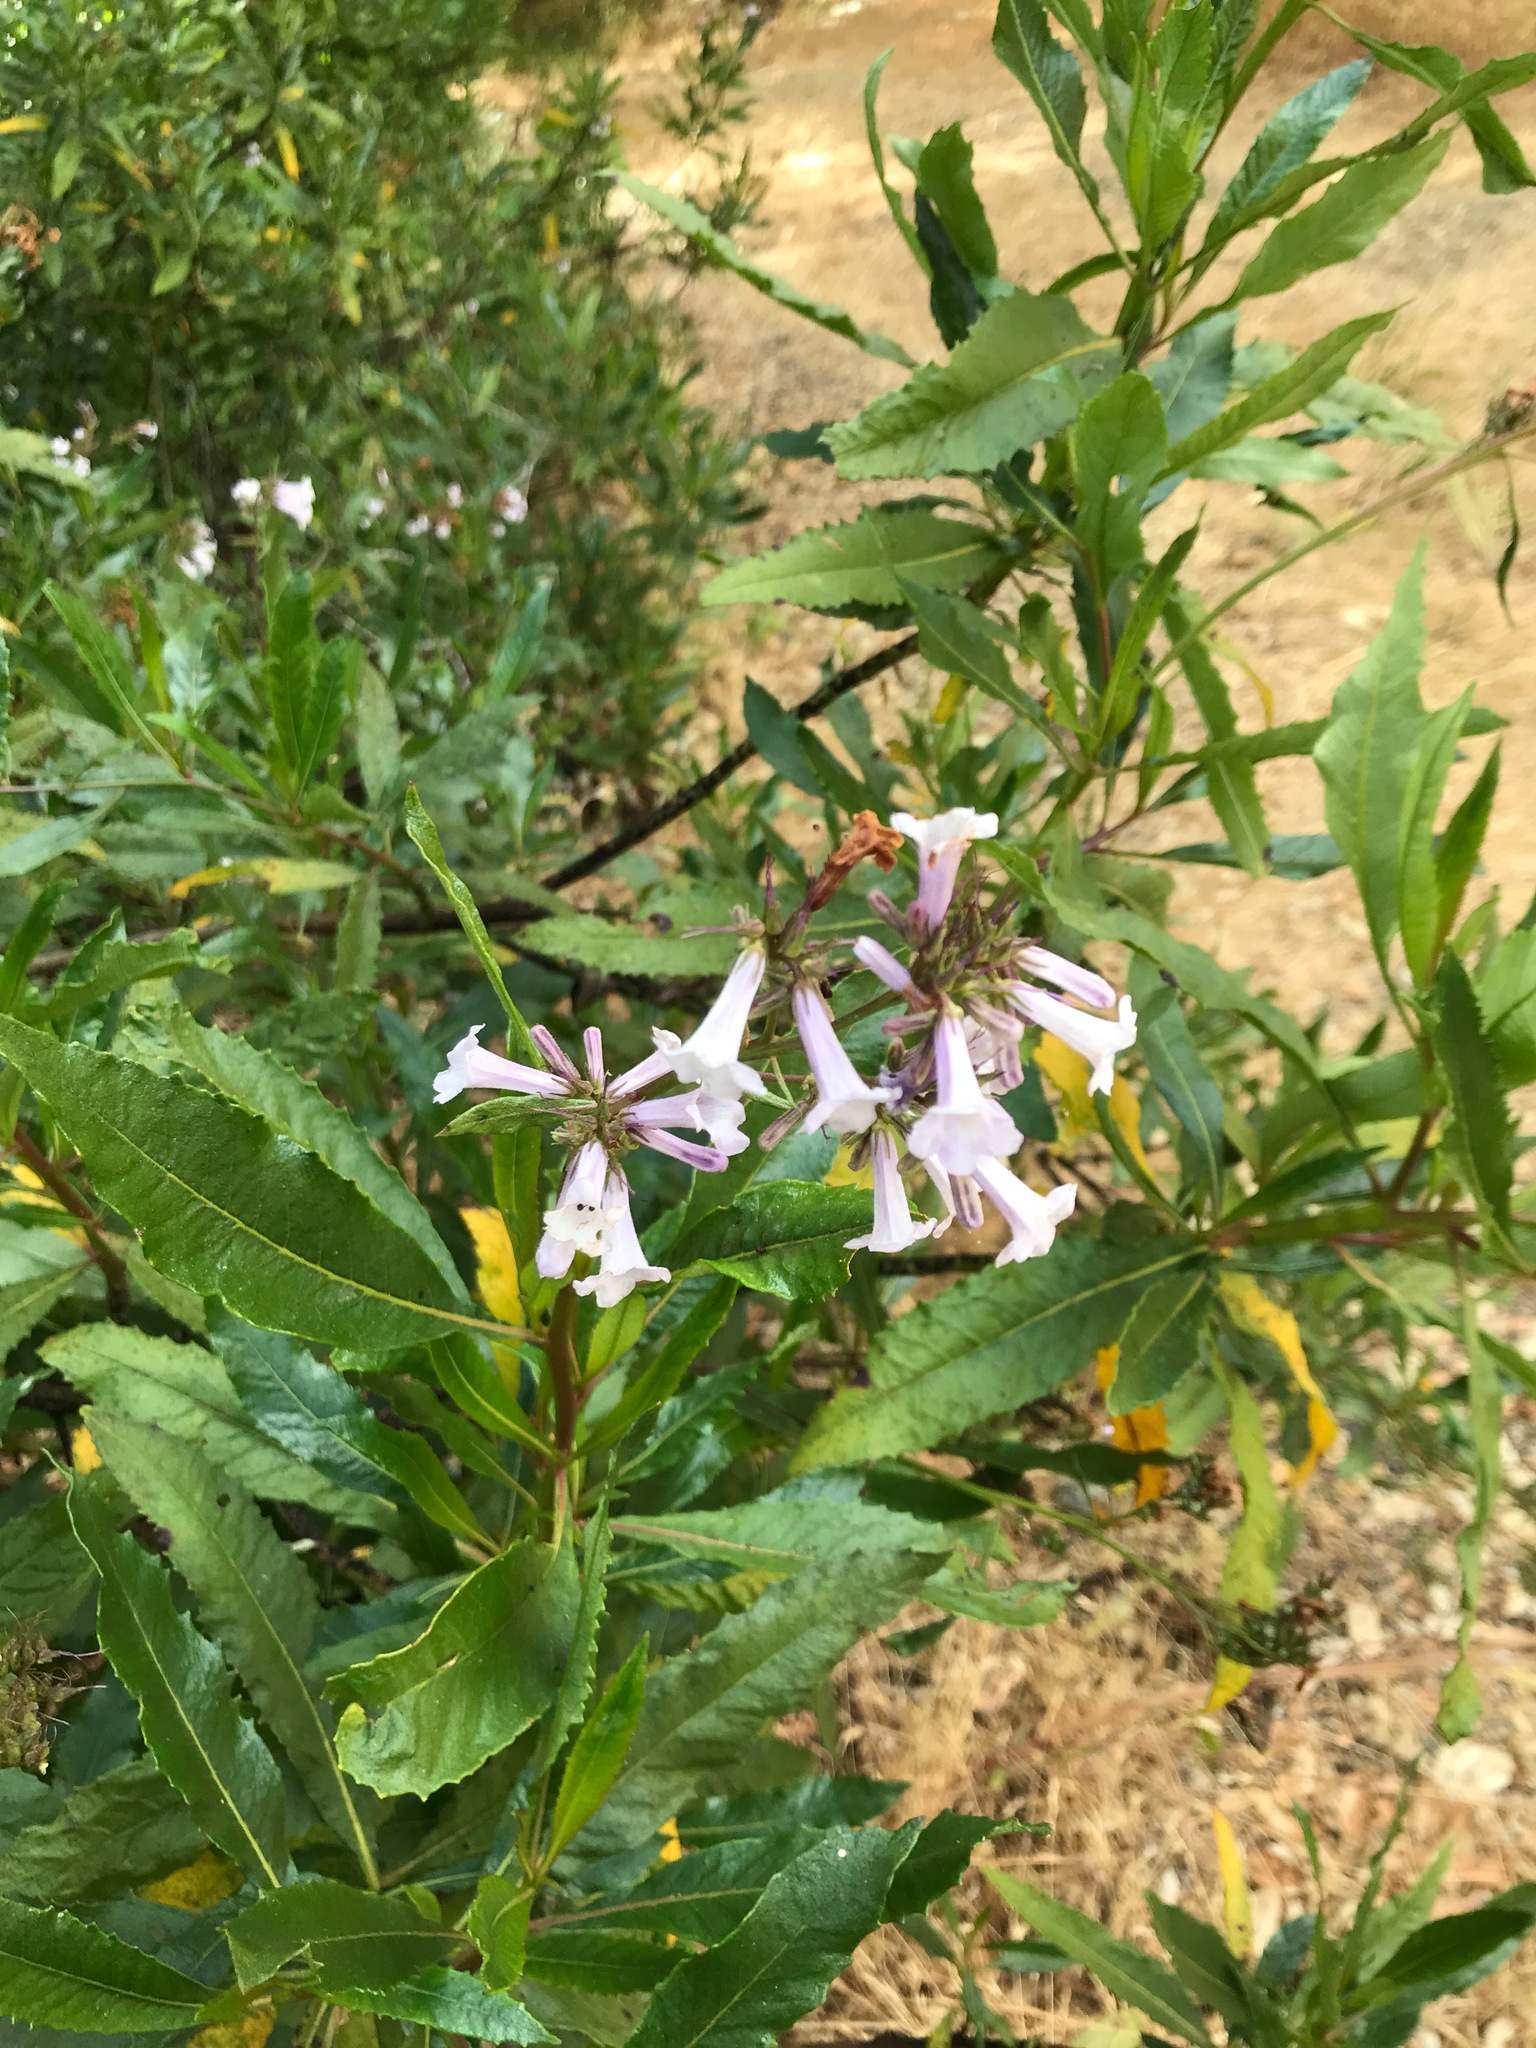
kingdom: Plantae
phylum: Tracheophyta
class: Magnoliopsida
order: Boraginales
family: Namaceae
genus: Eriodictyon
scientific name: Eriodictyon californicum
